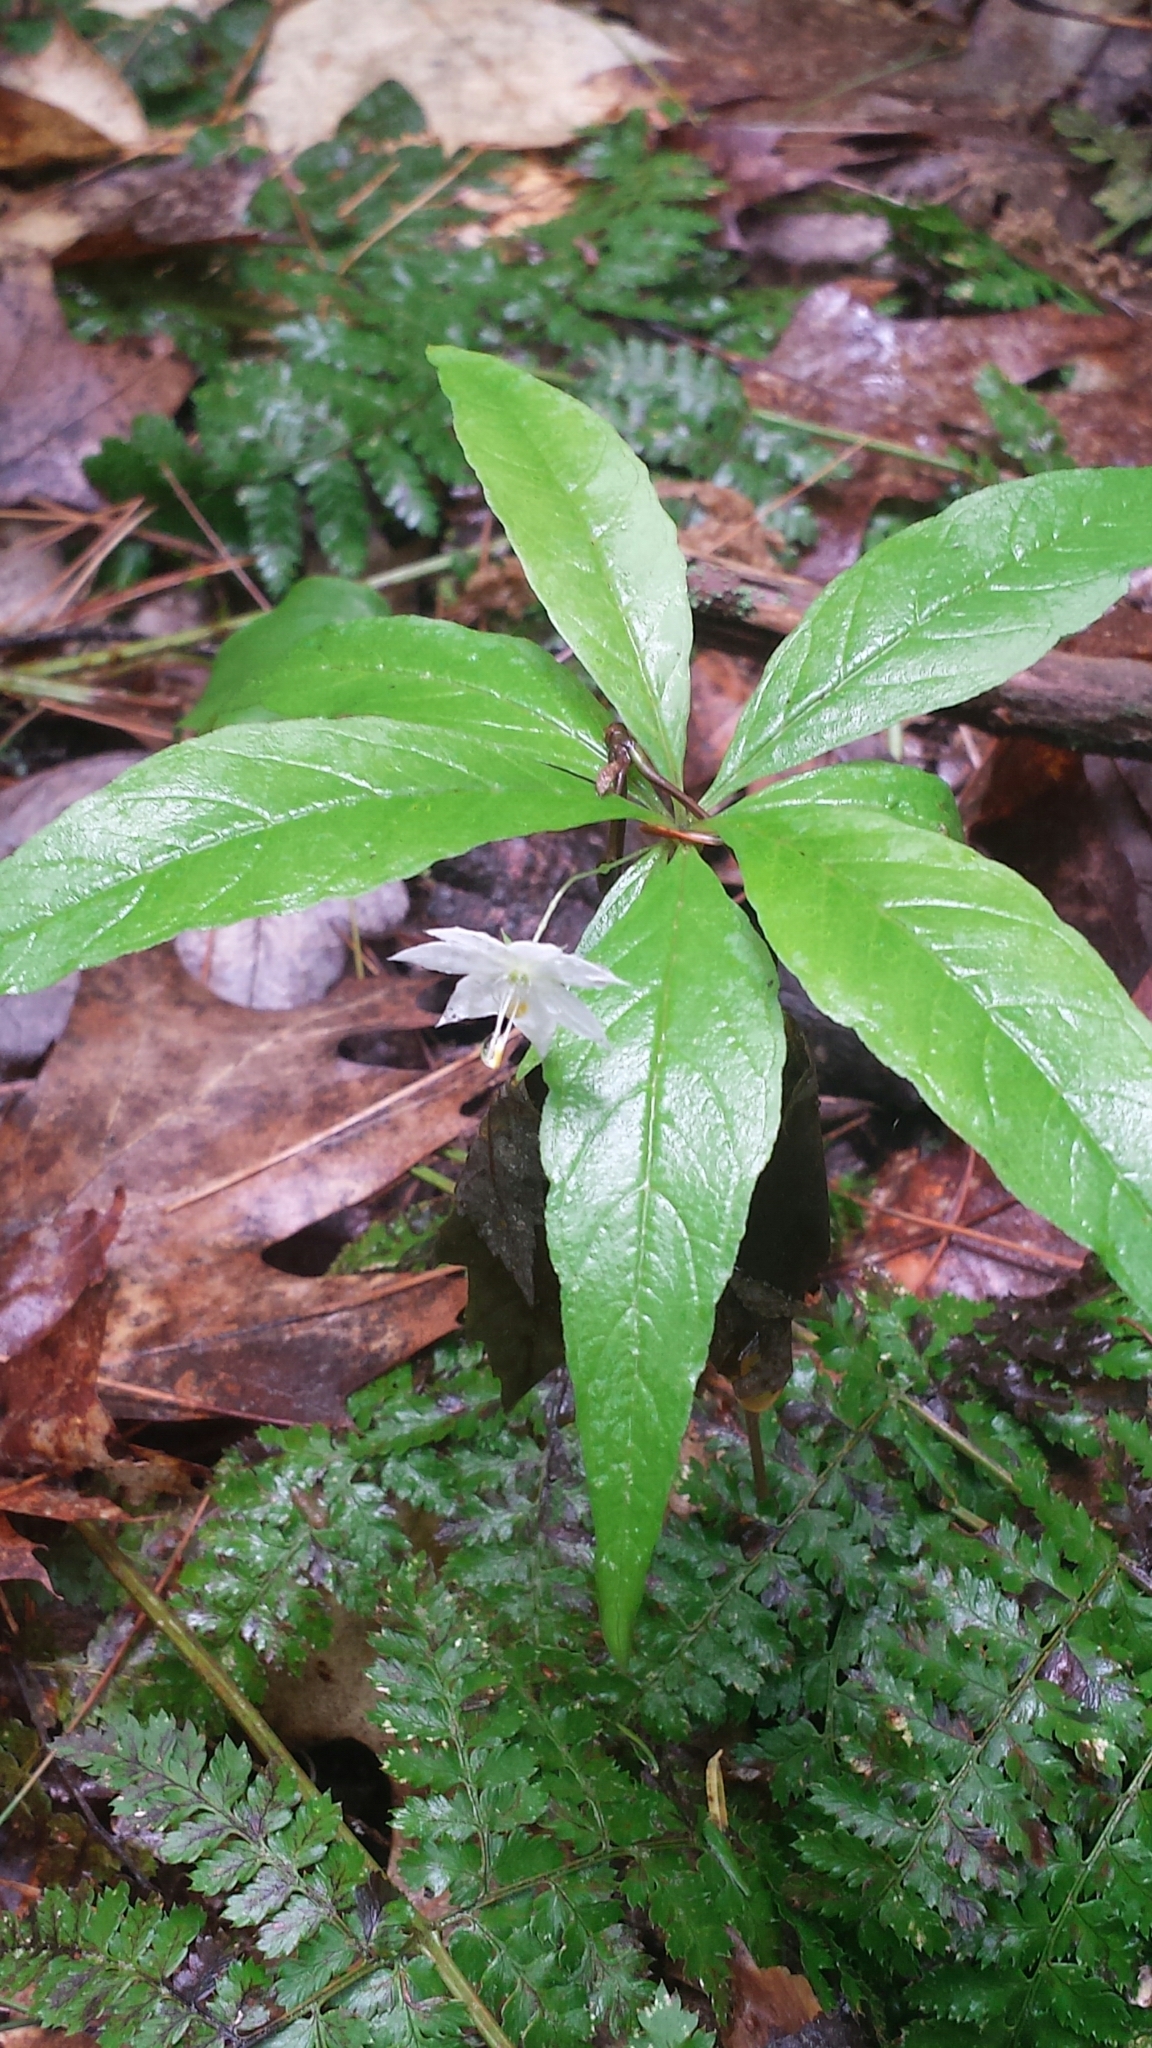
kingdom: Plantae
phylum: Tracheophyta
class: Magnoliopsida
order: Ericales
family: Primulaceae
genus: Lysimachia
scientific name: Lysimachia borealis
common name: American starflower
